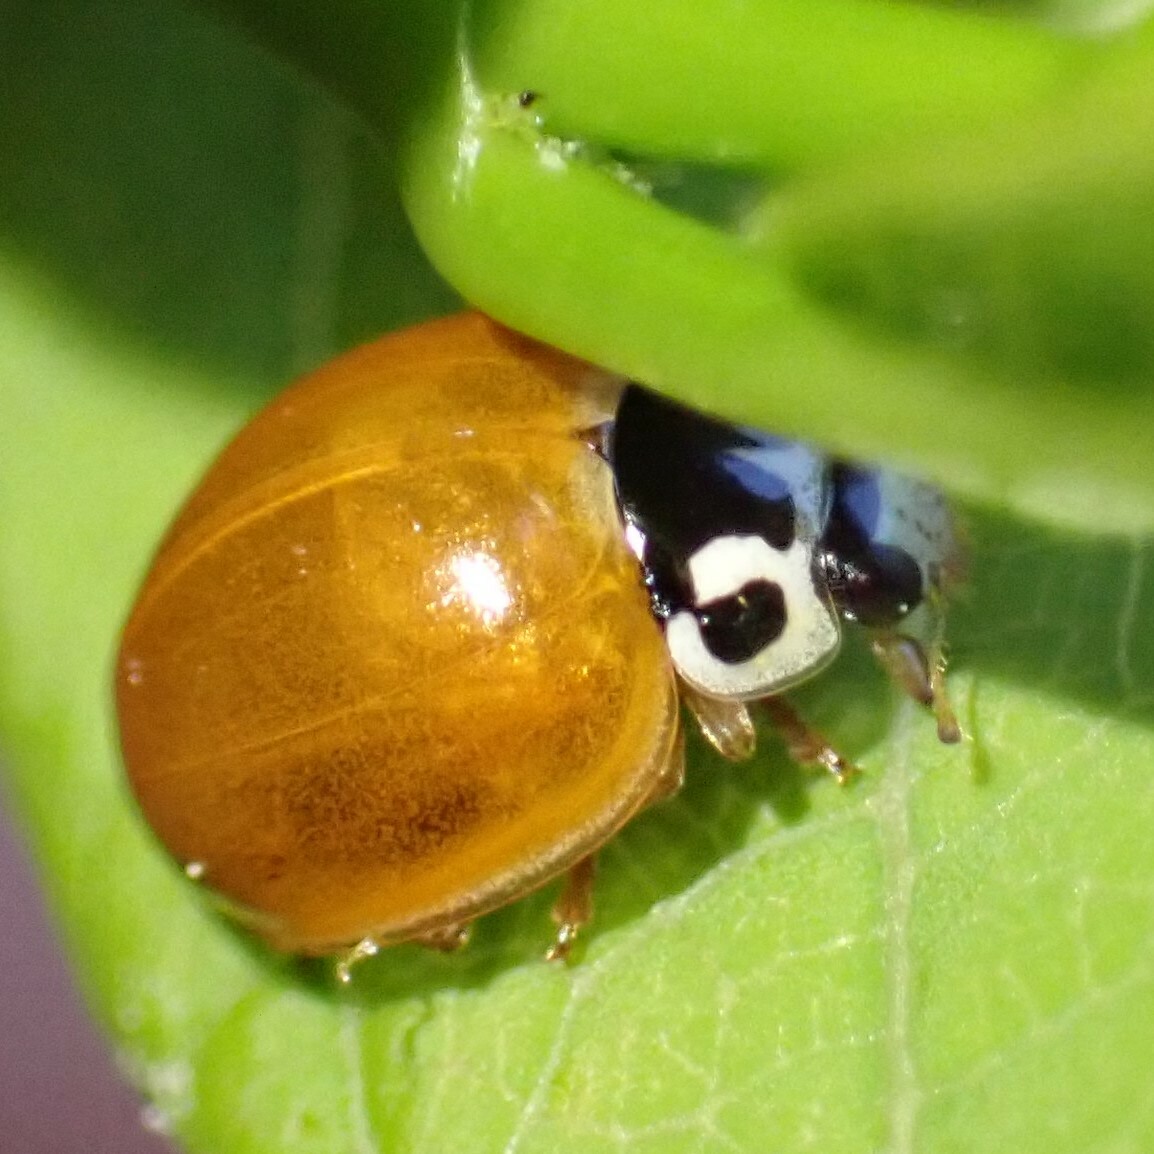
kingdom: Animalia
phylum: Arthropoda
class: Insecta
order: Coleoptera
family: Coccinellidae
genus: Cycloneda
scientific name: Cycloneda munda
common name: Polished lady beetle
